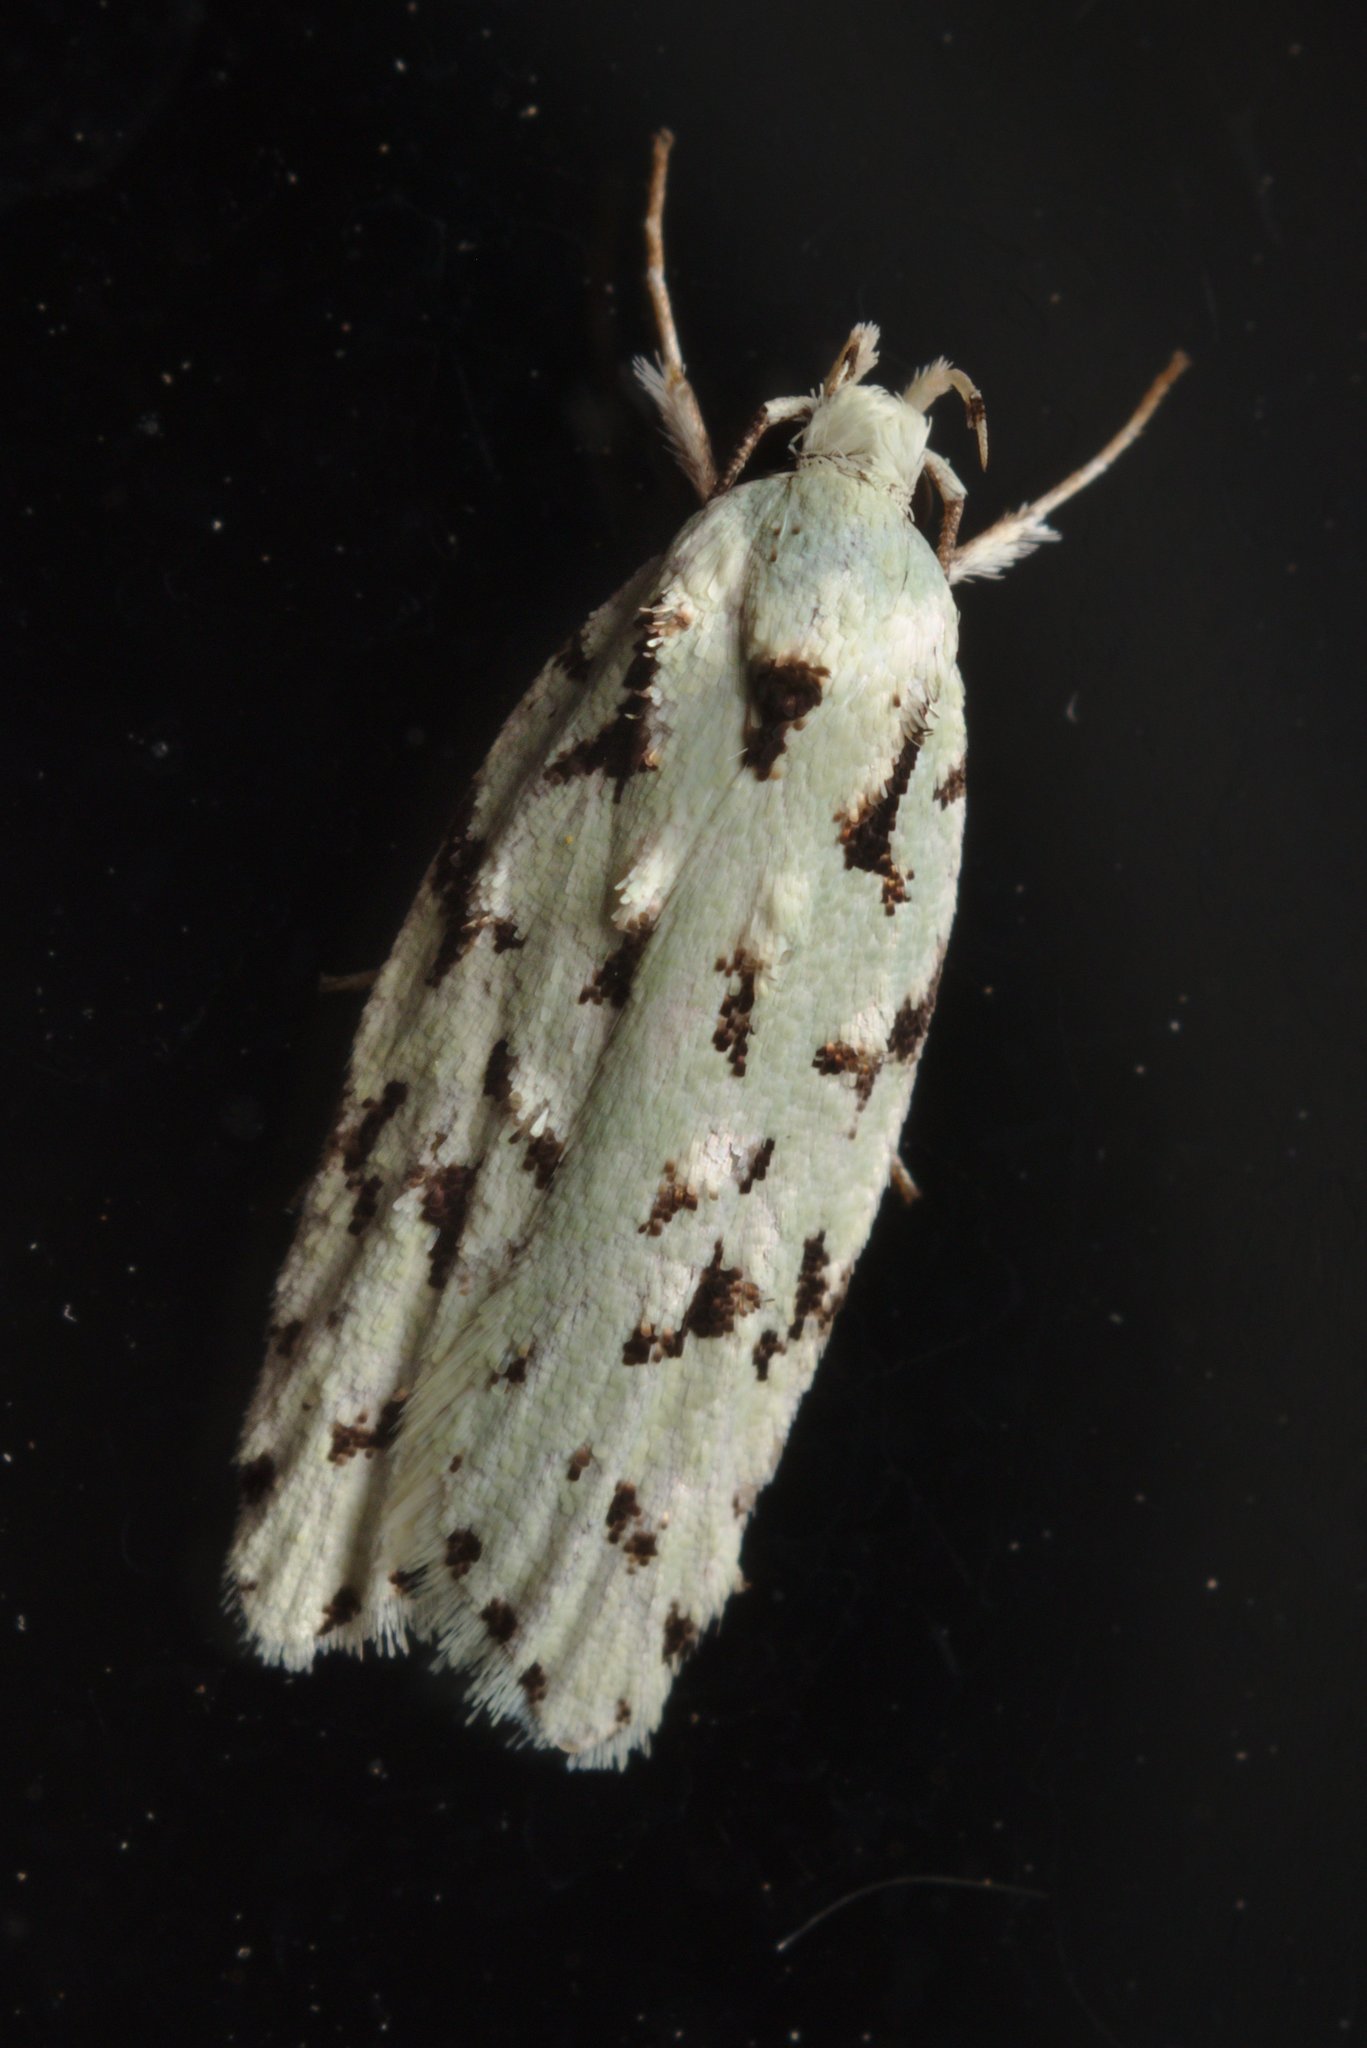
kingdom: Animalia
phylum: Arthropoda
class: Insecta
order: Lepidoptera
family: Oecophoridae
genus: Izatha
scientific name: Izatha peroneanella
